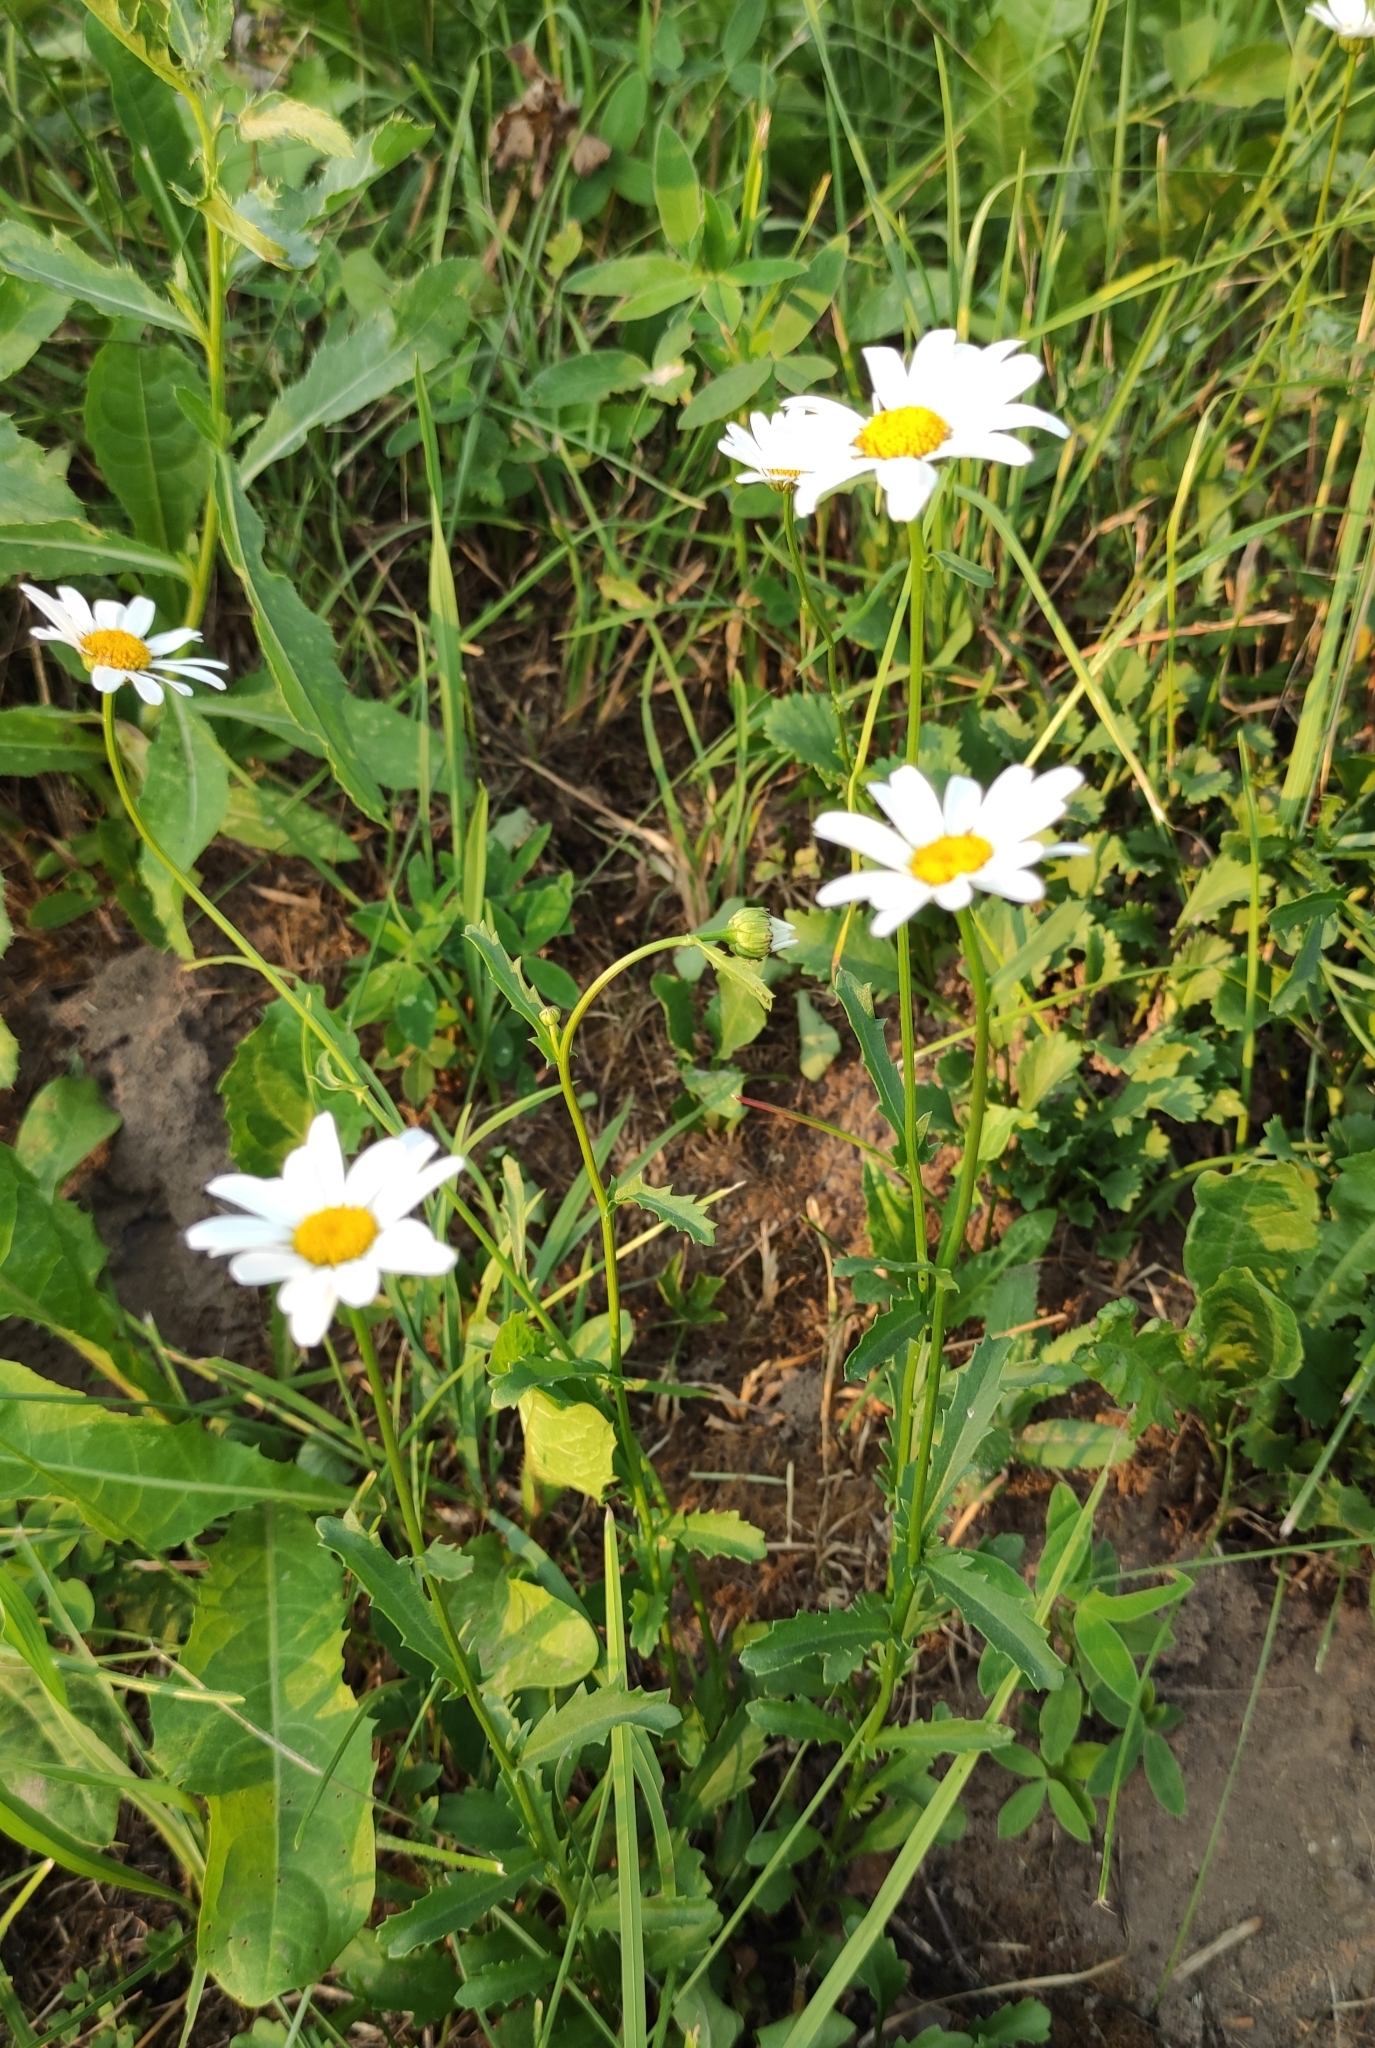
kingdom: Plantae
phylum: Tracheophyta
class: Magnoliopsida
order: Asterales
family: Asteraceae
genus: Leucanthemum
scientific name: Leucanthemum vulgare
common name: Oxeye daisy
